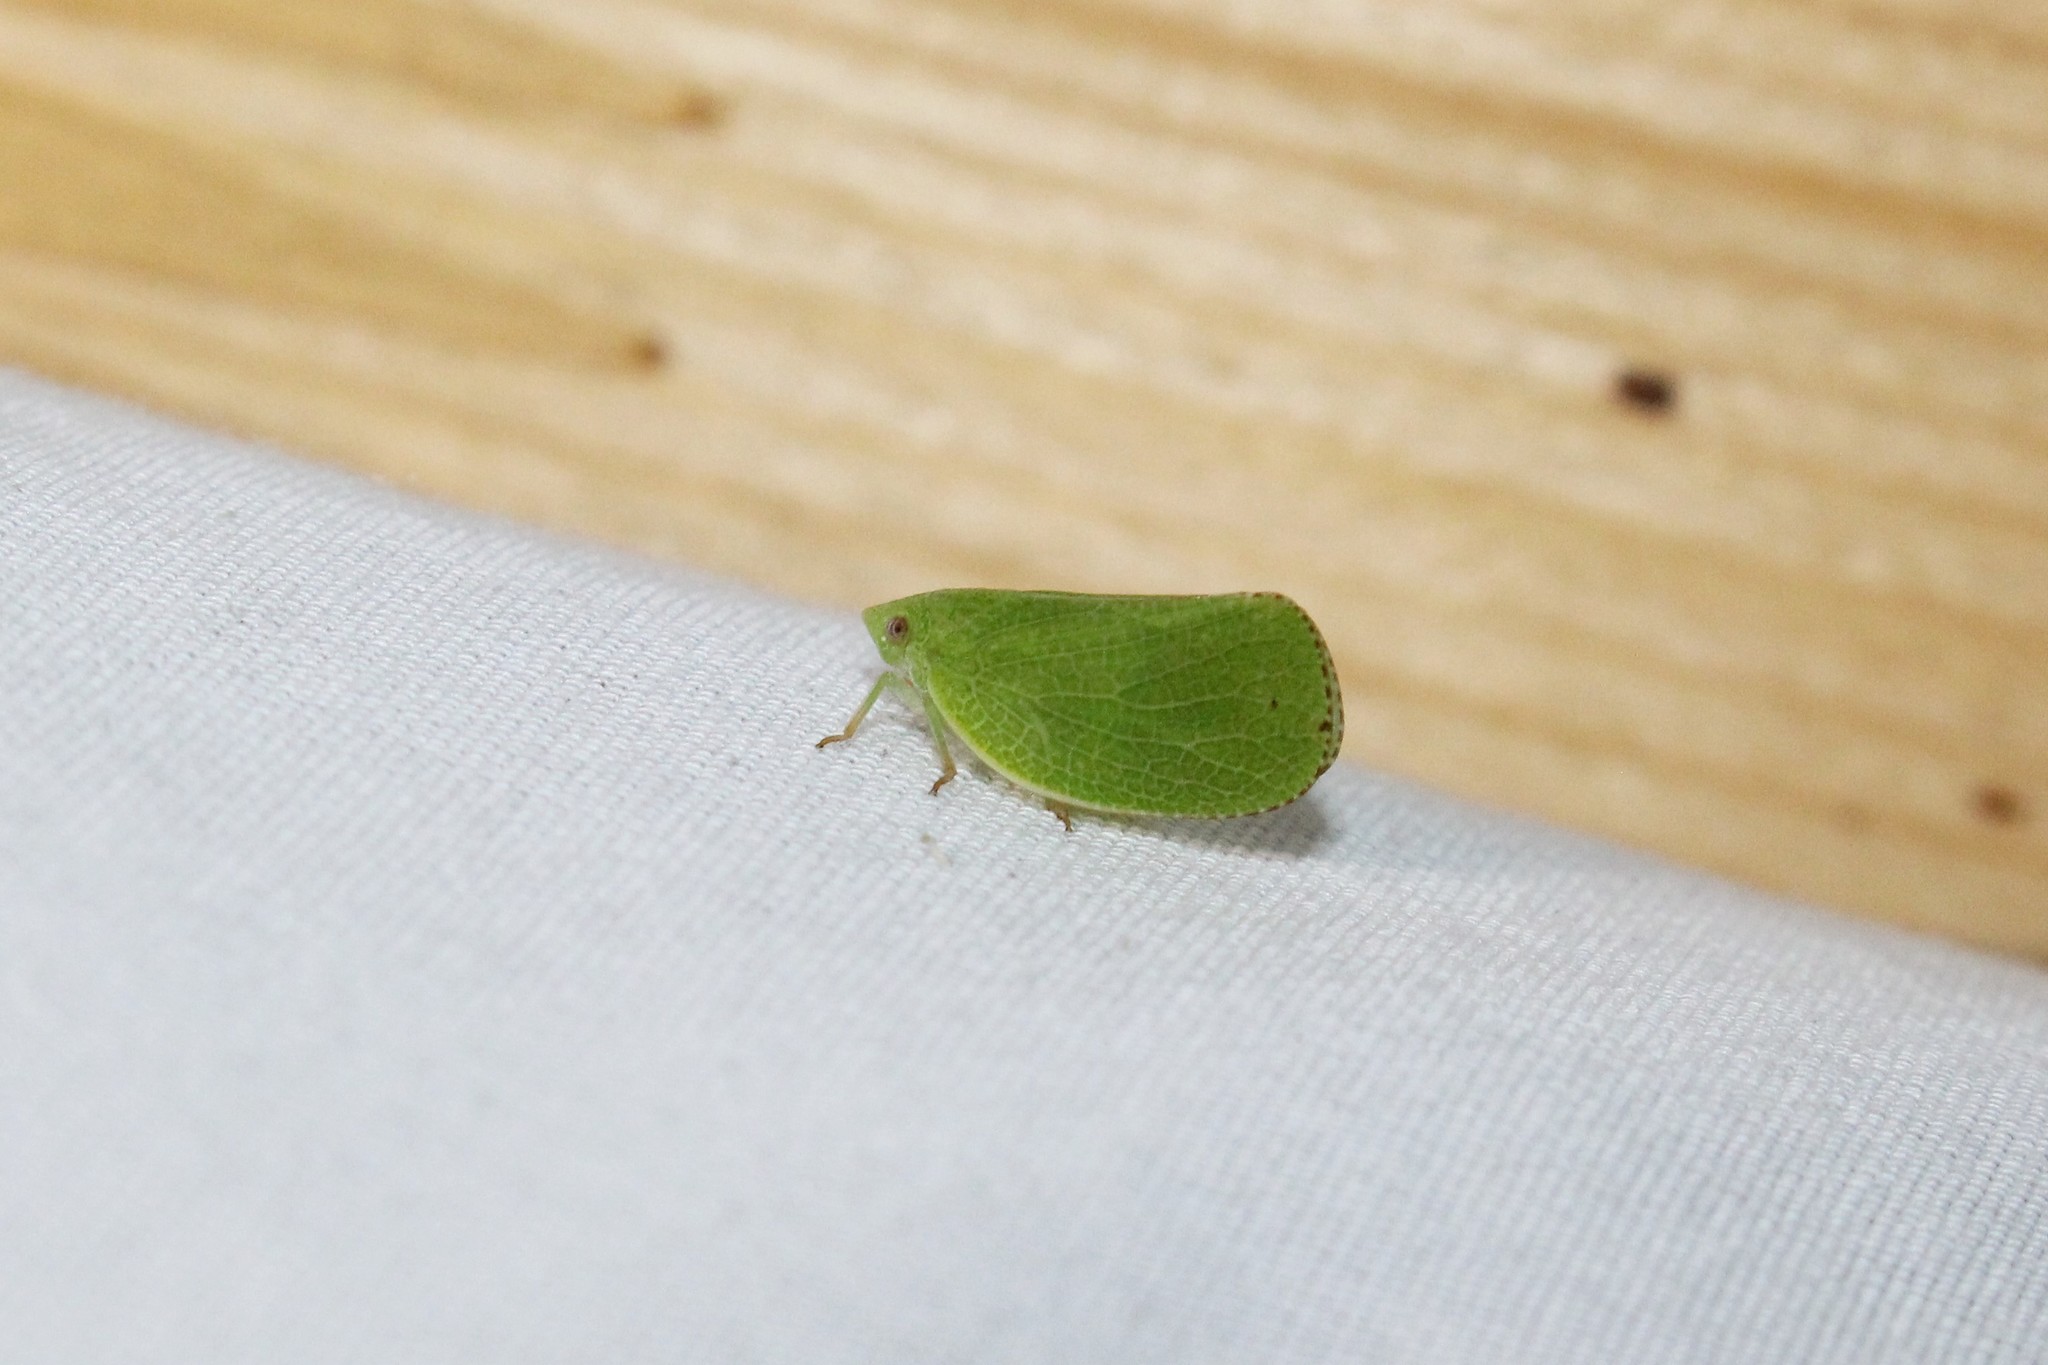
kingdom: Animalia
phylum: Arthropoda
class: Insecta
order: Hemiptera
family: Acanaloniidae
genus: Acanalonia
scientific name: Acanalonia conica
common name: Green cone-headed planthopper
